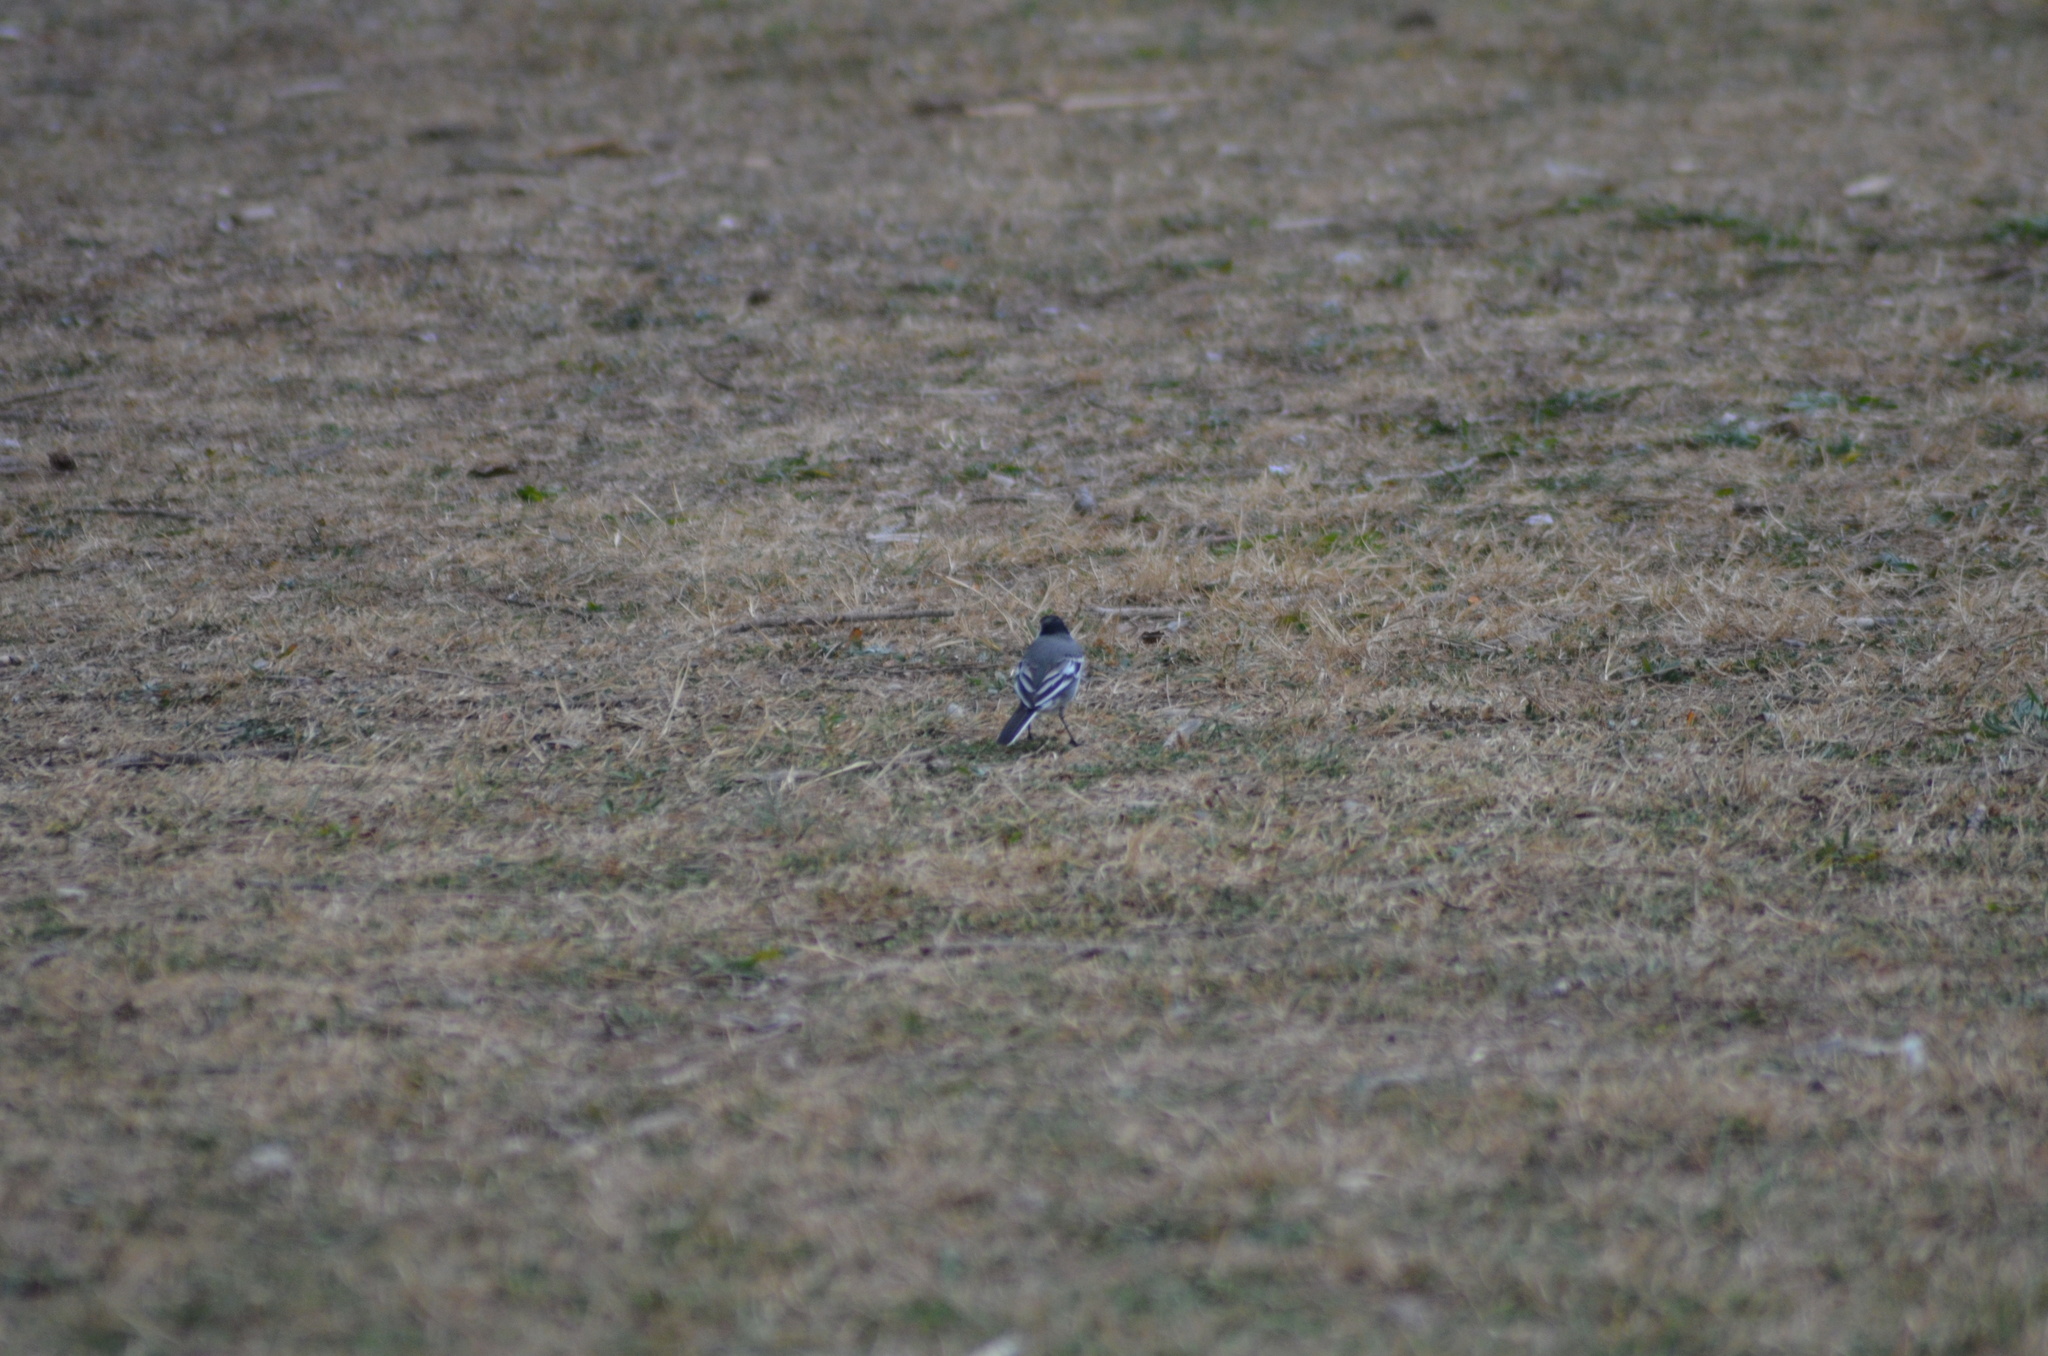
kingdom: Animalia
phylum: Chordata
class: Aves
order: Passeriformes
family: Motacillidae
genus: Motacilla
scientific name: Motacilla alba
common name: White wagtail
